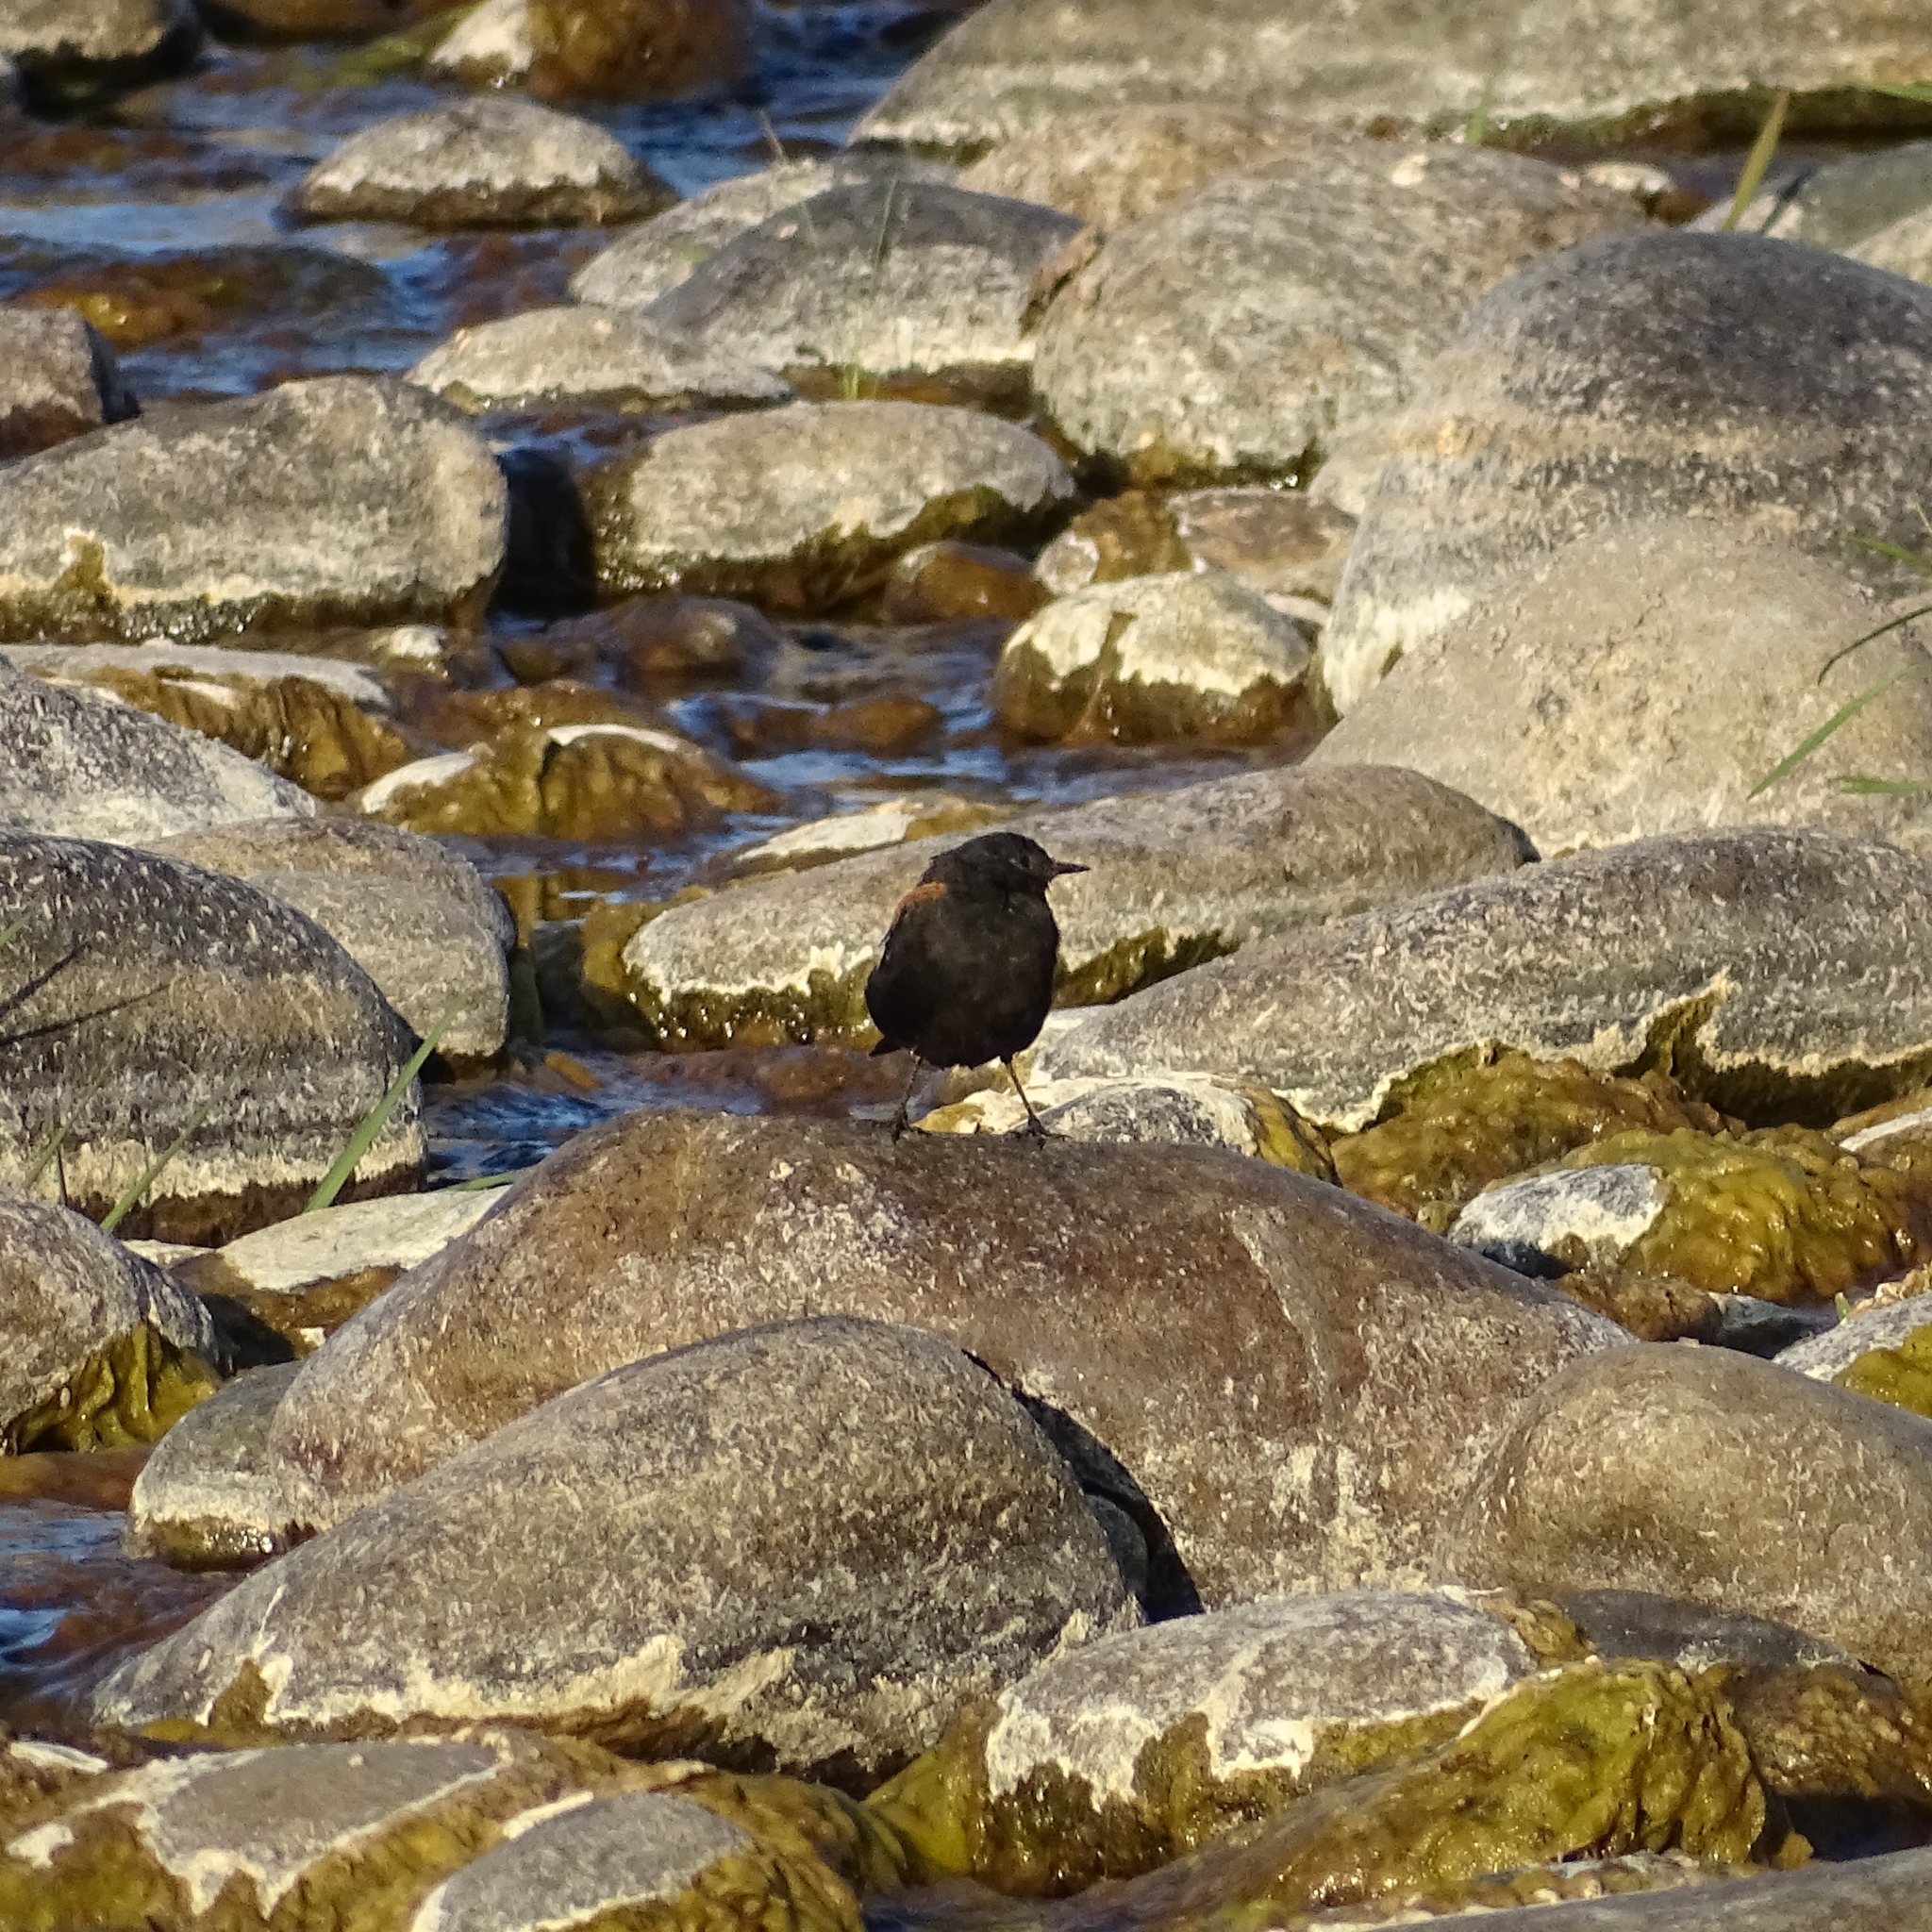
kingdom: Animalia
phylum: Chordata
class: Aves
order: Passeriformes
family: Tyrannidae
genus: Lessonia
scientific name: Lessonia rufa
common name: Austral negrito
